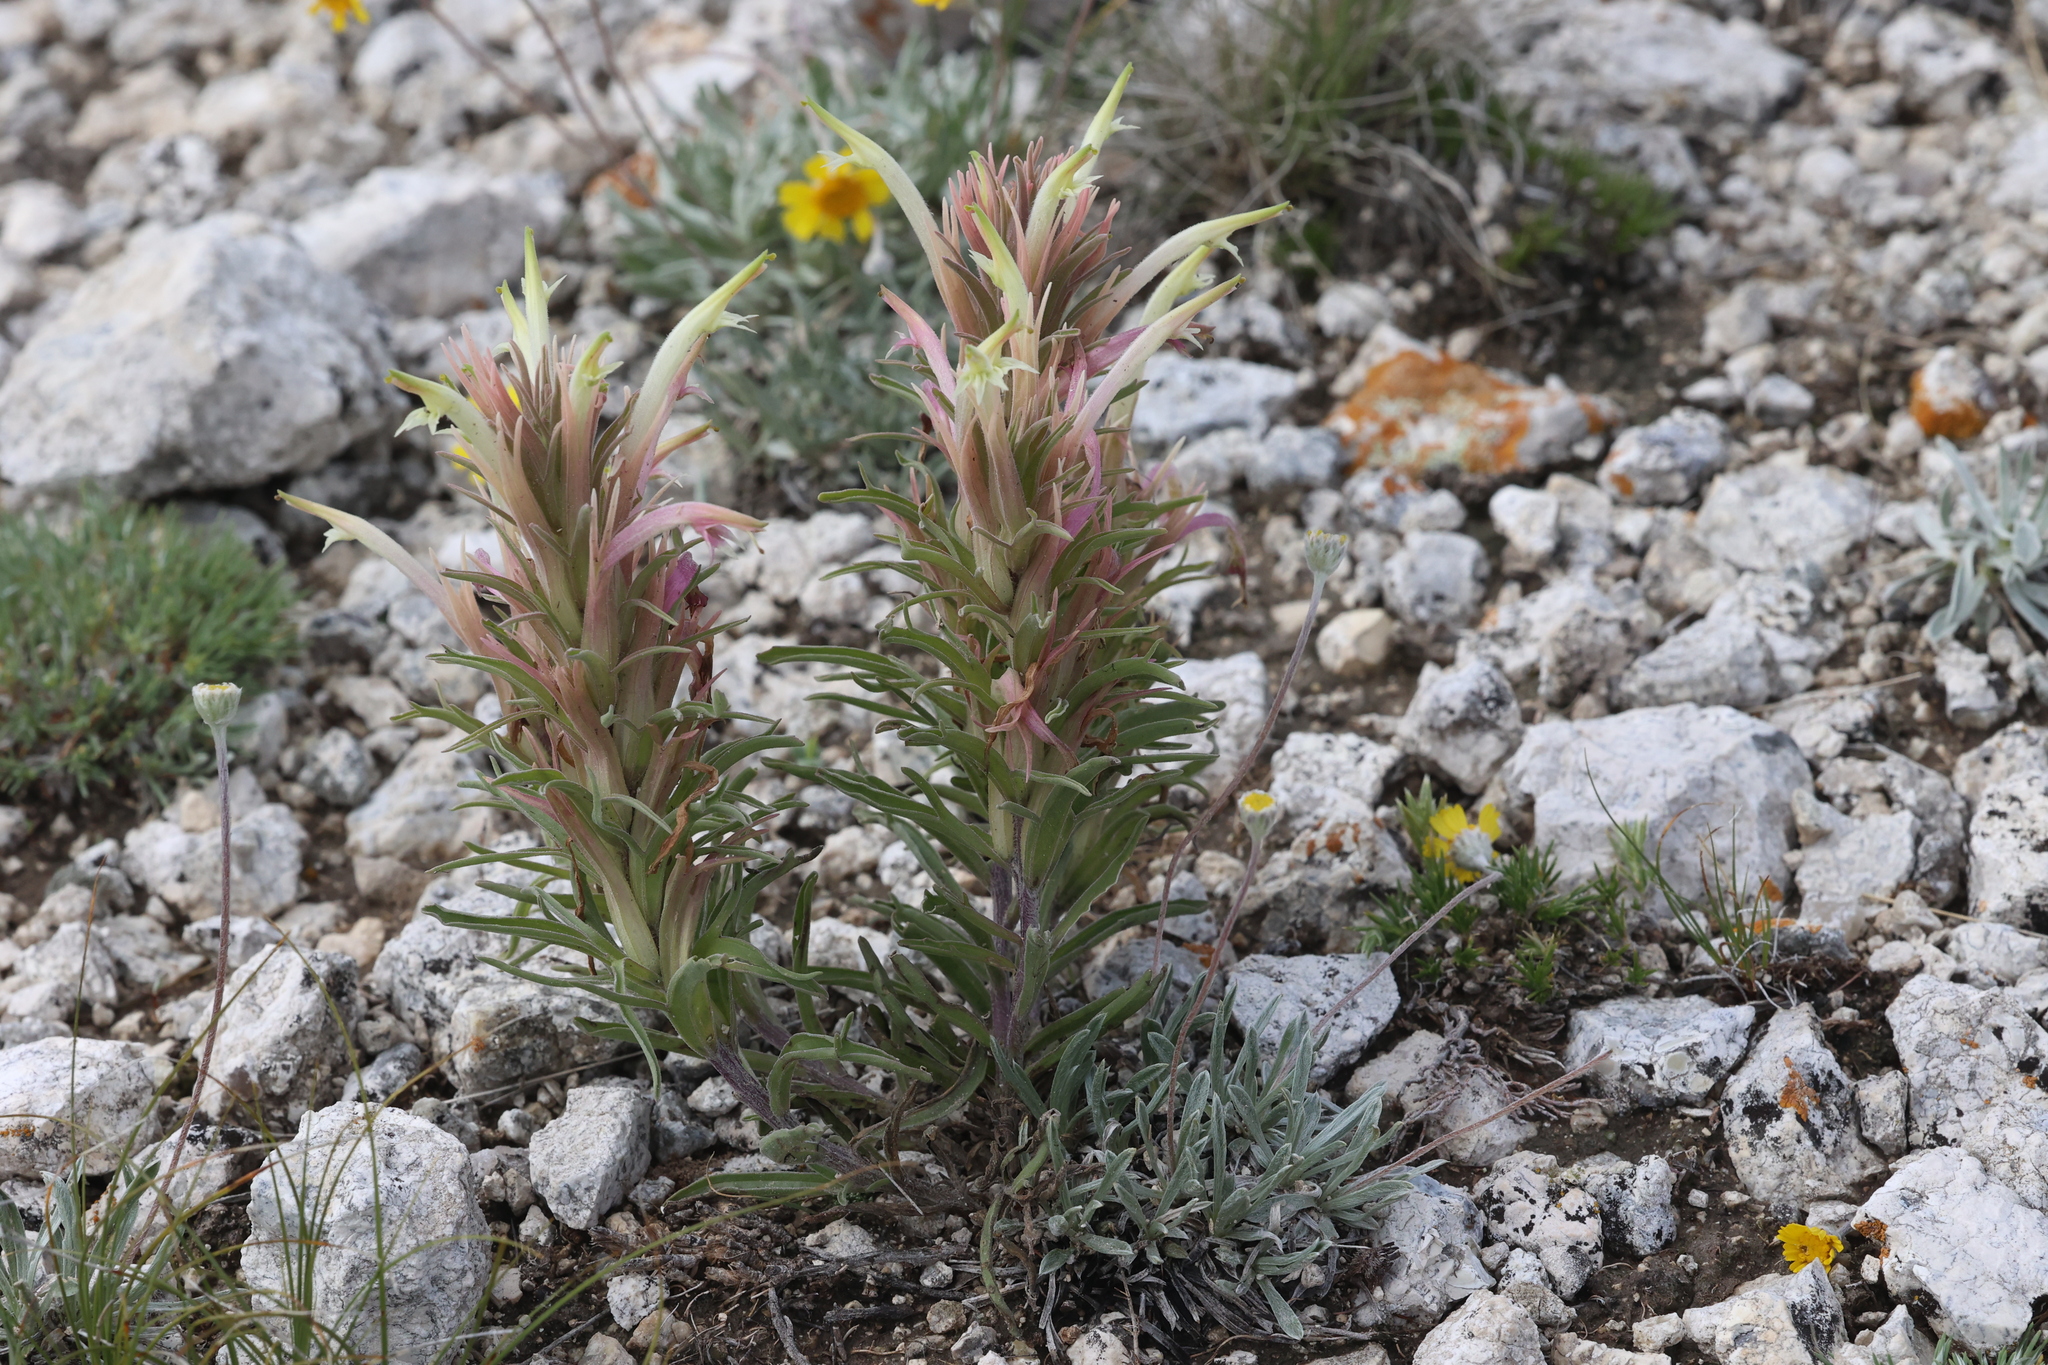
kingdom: Plantae
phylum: Tracheophyta
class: Magnoliopsida
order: Lamiales
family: Orobanchaceae
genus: Castilleja
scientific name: Castilleja sessiliflora
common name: Downy paintbrush
